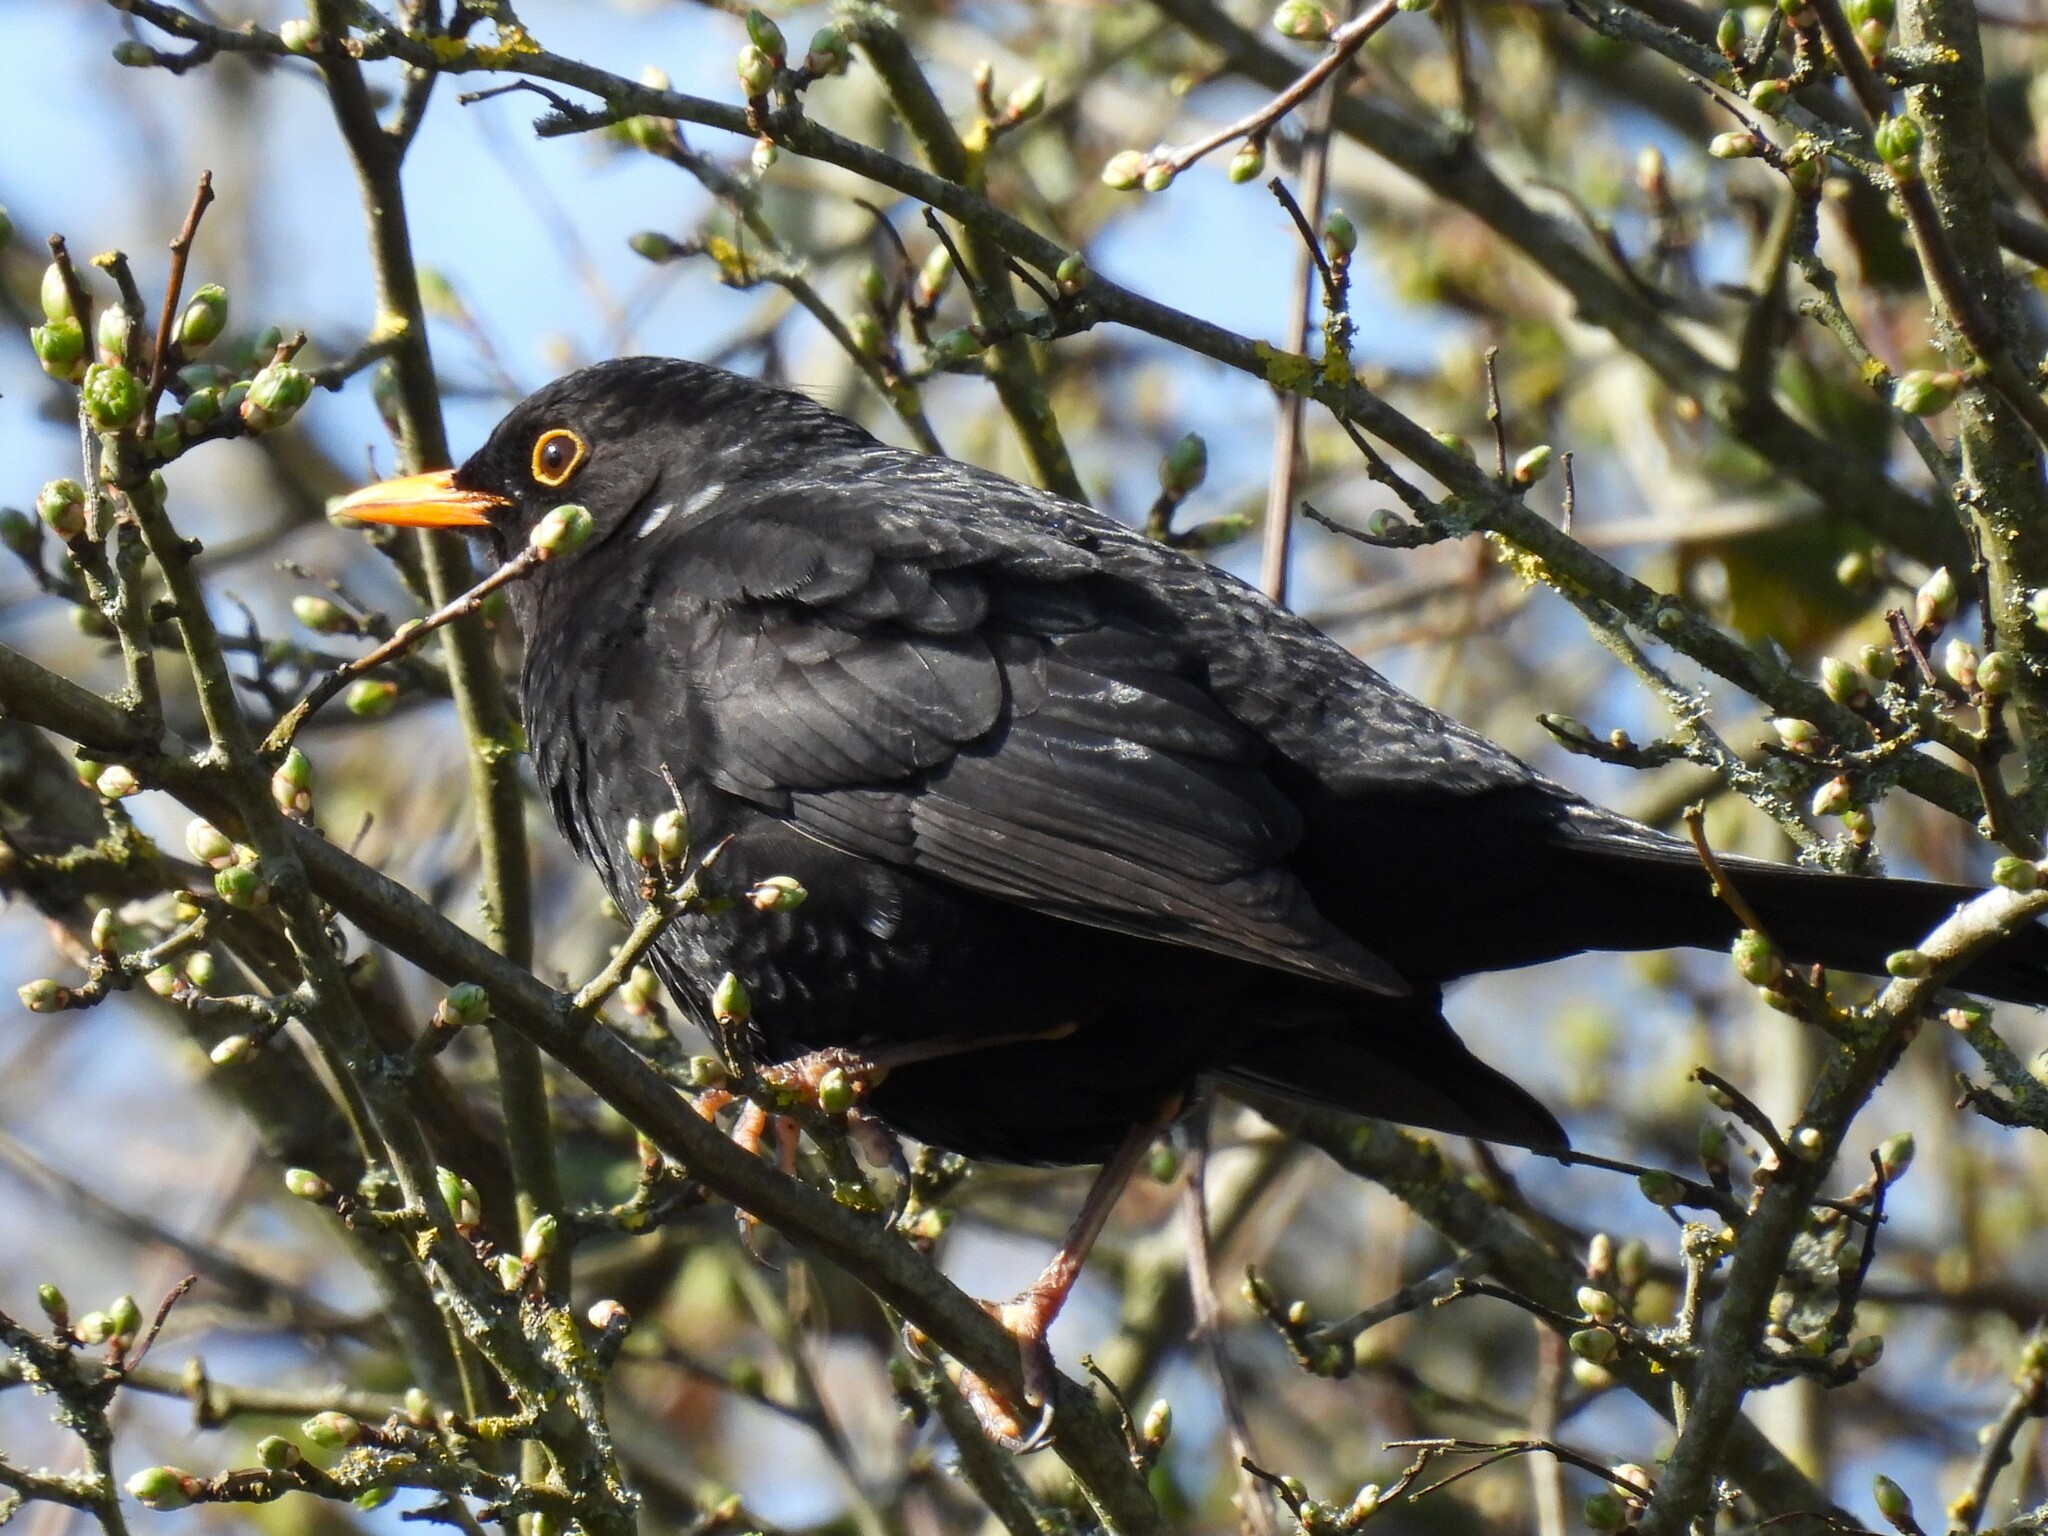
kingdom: Animalia
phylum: Chordata
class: Aves
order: Passeriformes
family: Turdidae
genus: Turdus
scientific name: Turdus merula
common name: Common blackbird
